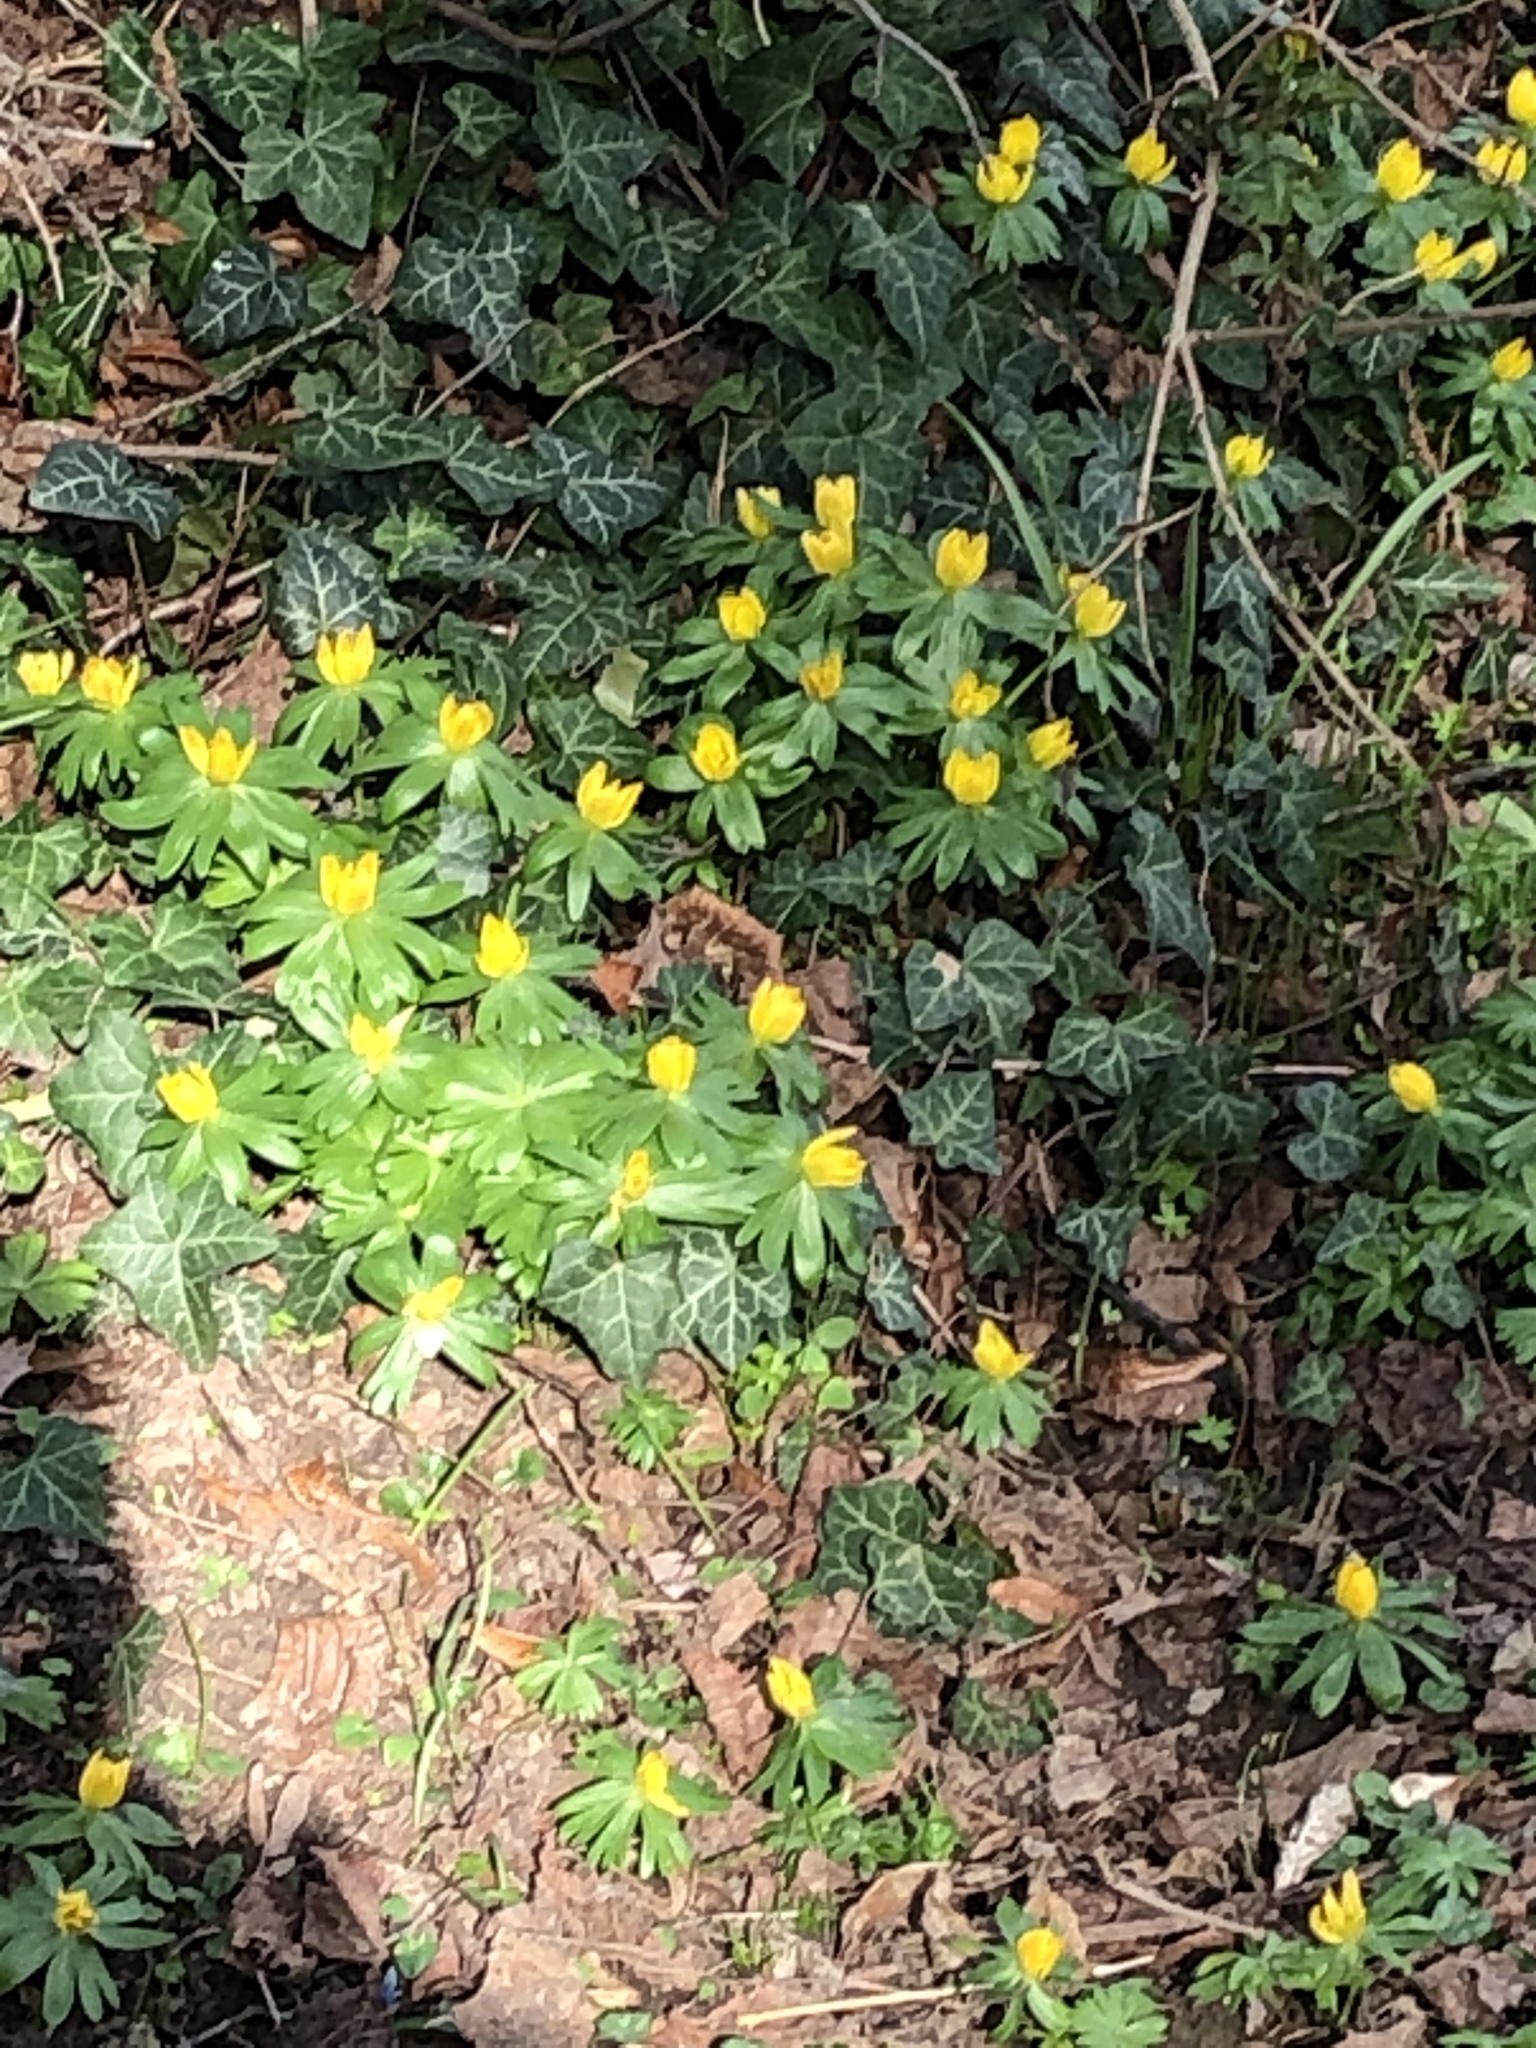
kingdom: Plantae
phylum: Tracheophyta
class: Magnoliopsida
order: Ranunculales
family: Ranunculaceae
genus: Eranthis
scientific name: Eranthis hyemalis
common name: Winter aconite
